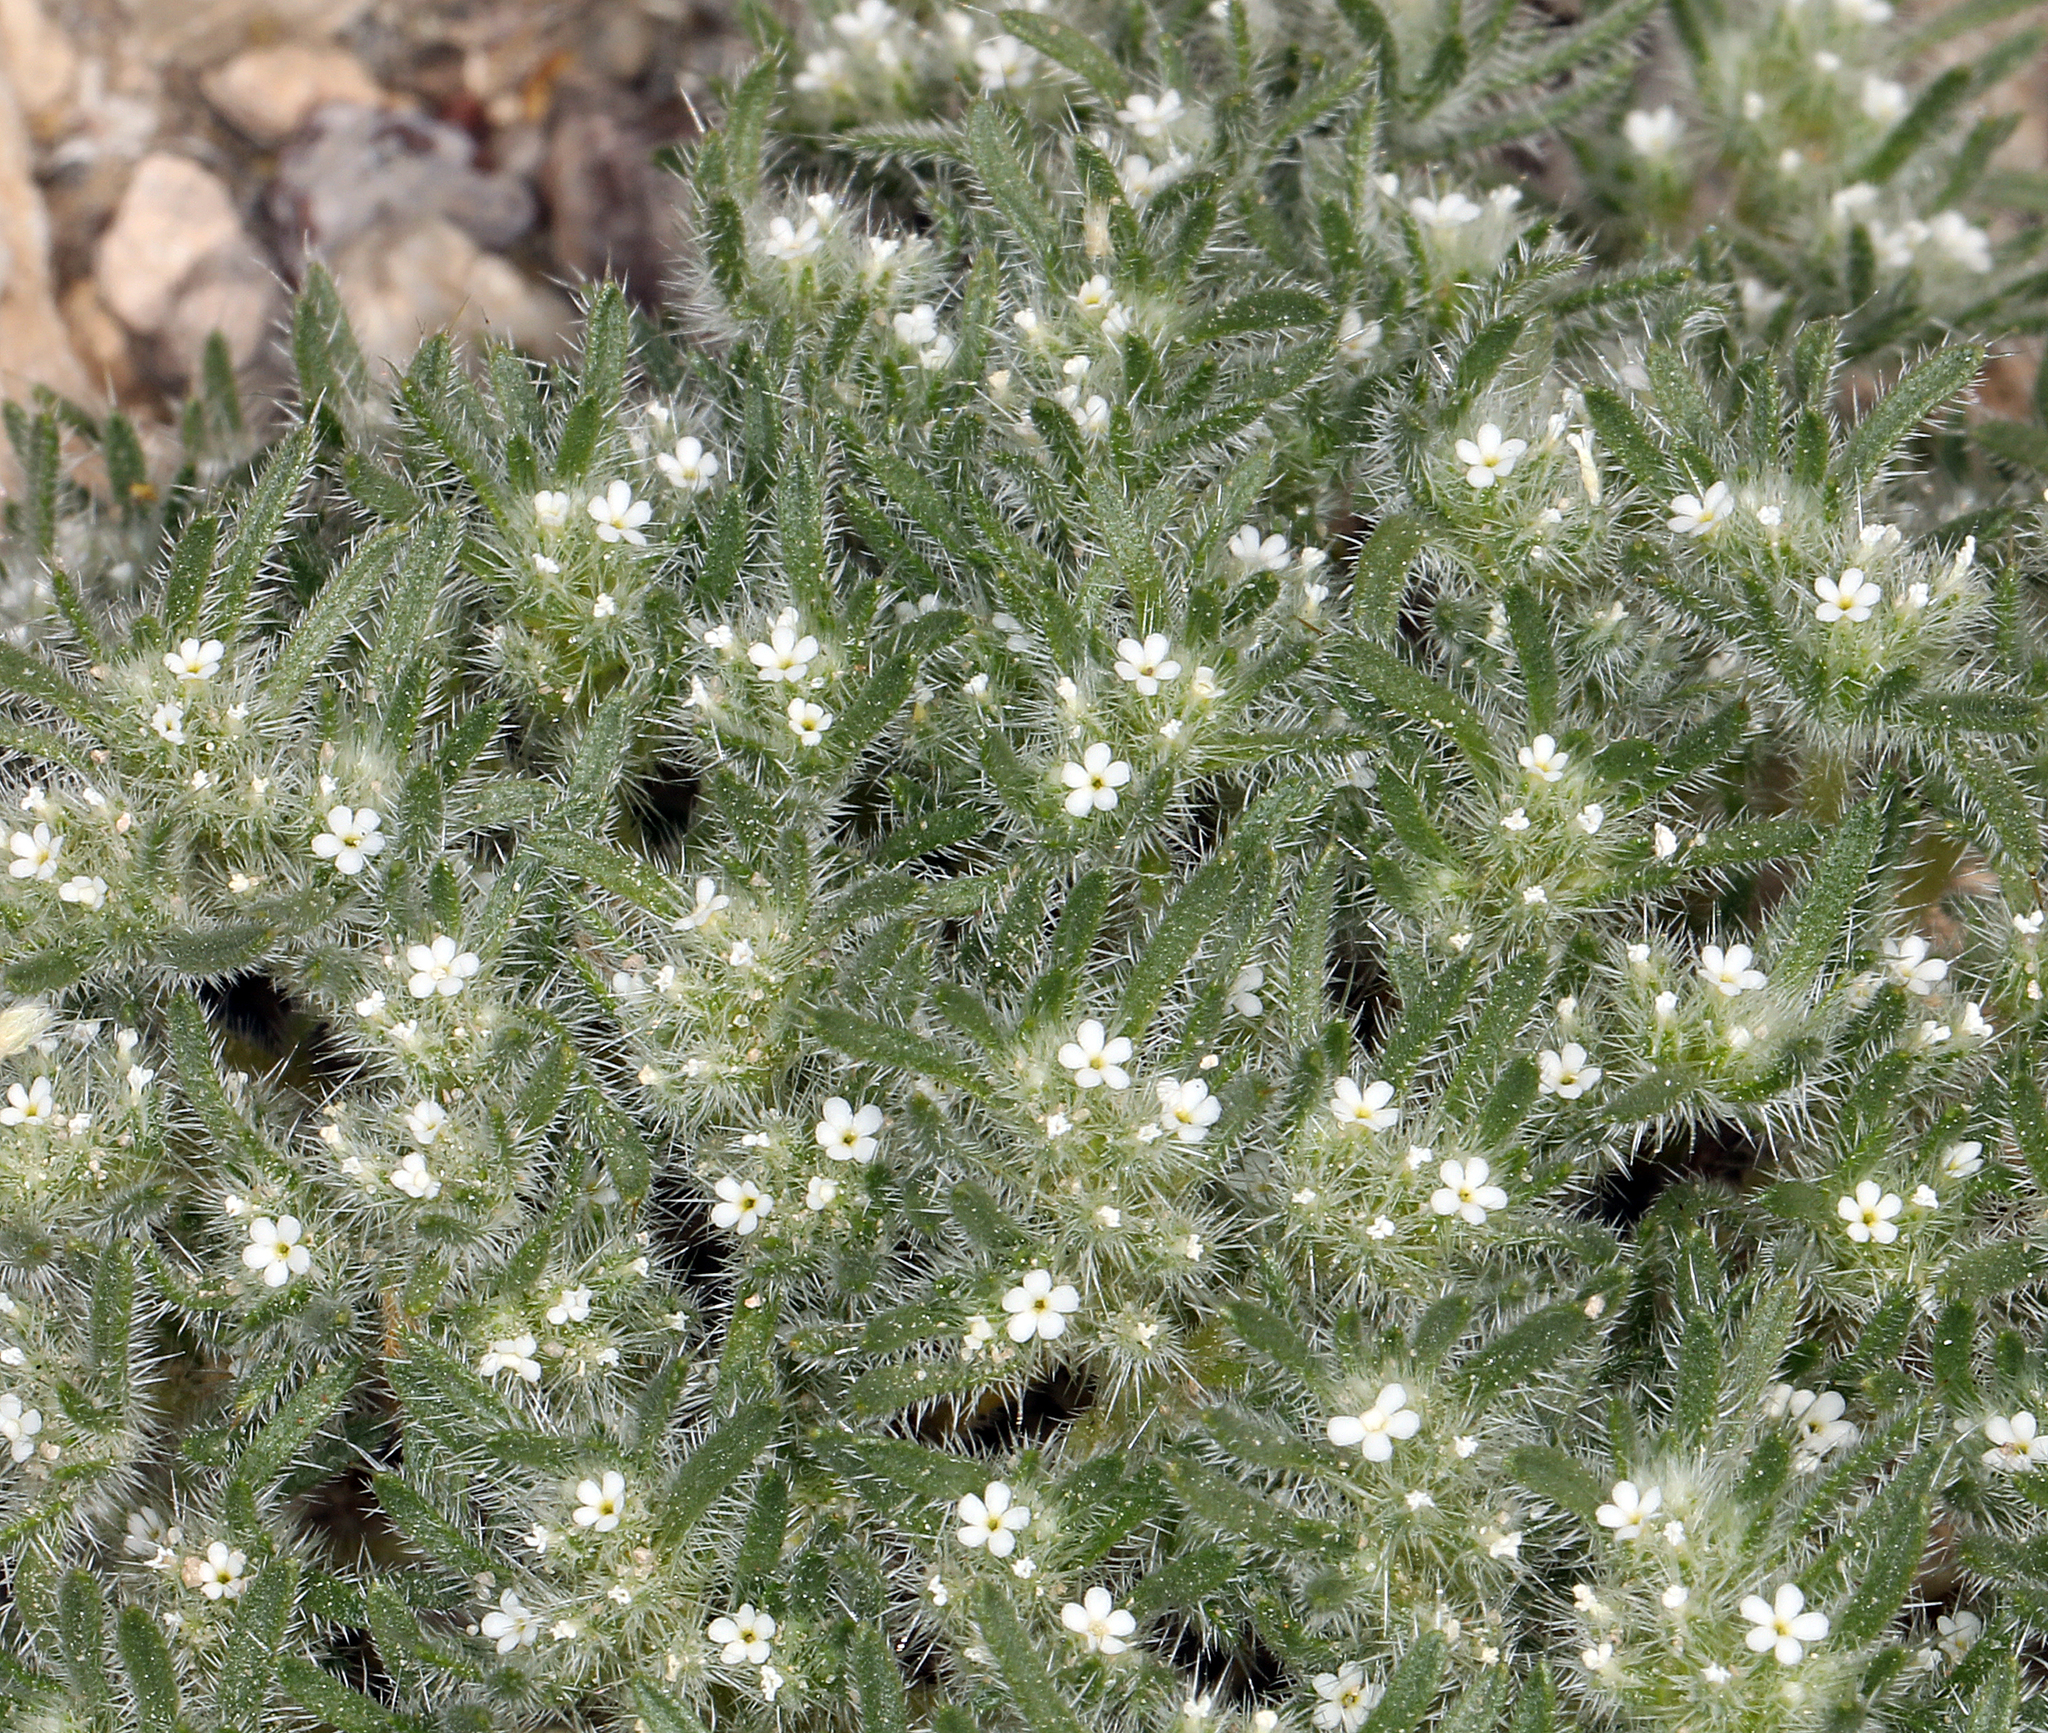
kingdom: Plantae
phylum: Tracheophyta
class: Magnoliopsida
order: Boraginales
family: Boraginaceae
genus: Greeneocharis
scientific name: Greeneocharis circumscissa
